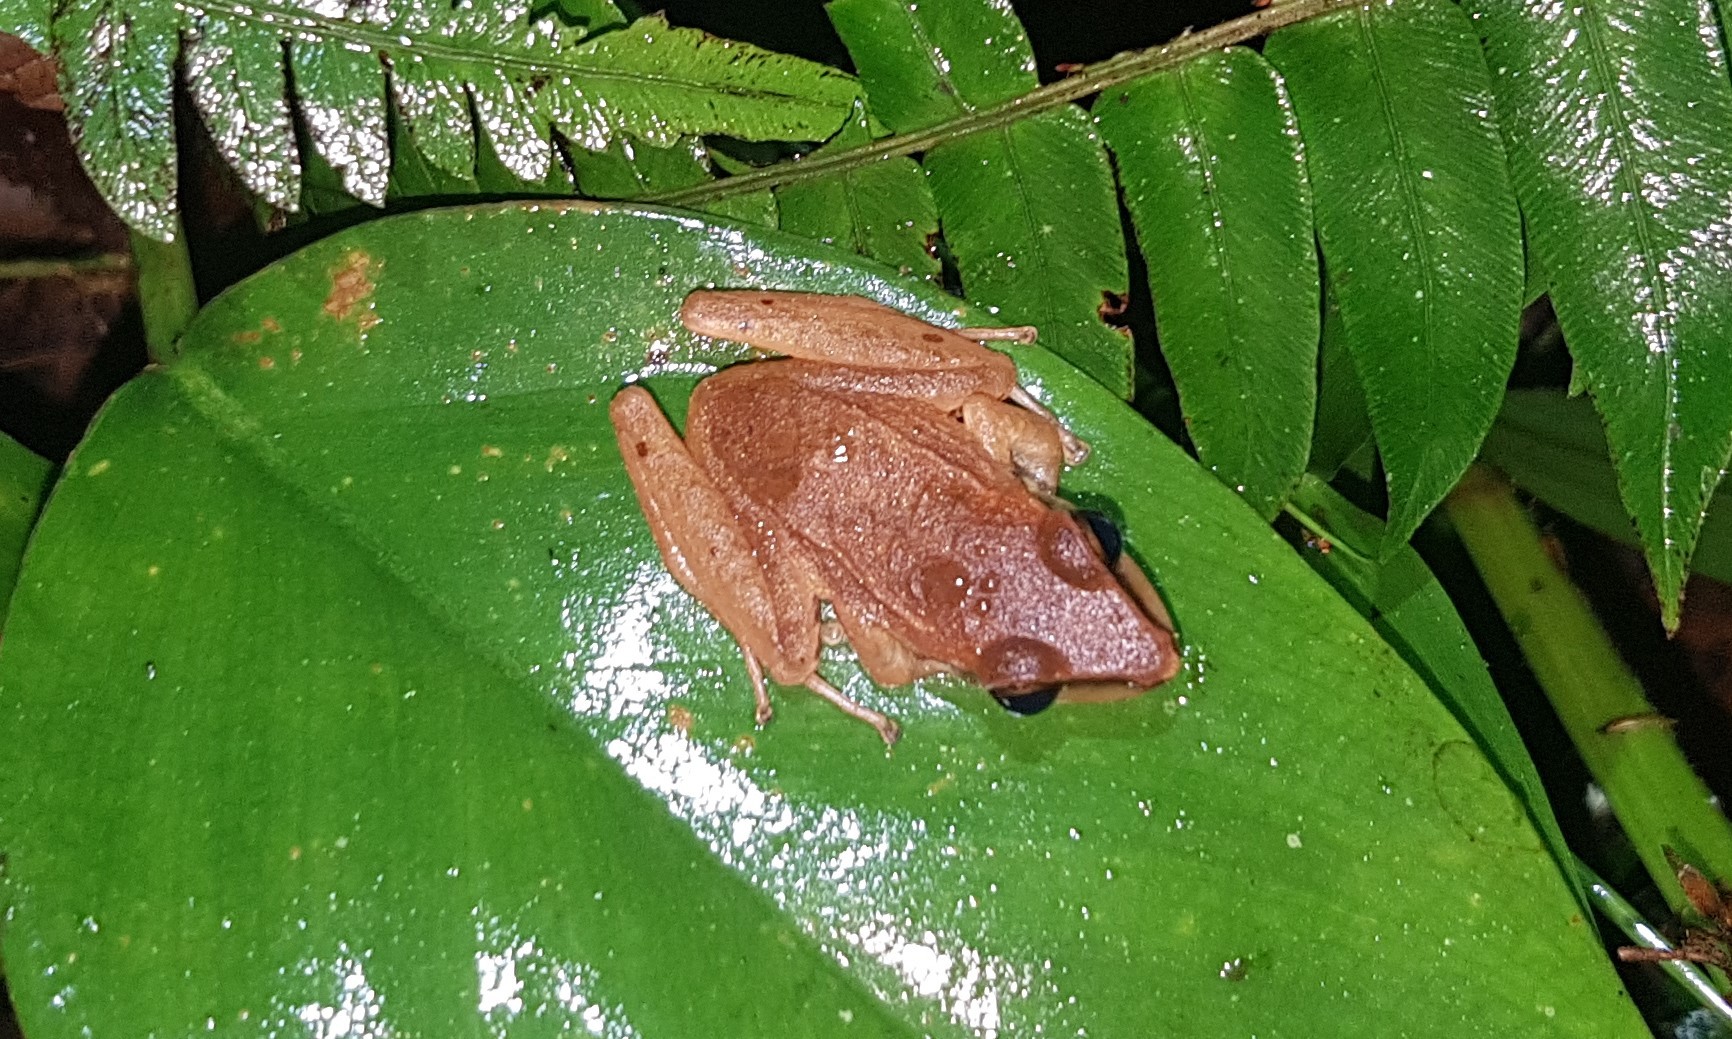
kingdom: Animalia
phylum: Chordata
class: Amphibia
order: Anura
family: Craugastoridae
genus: Pristimantis
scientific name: Pristimantis achatinus
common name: Cachabi robber frog
